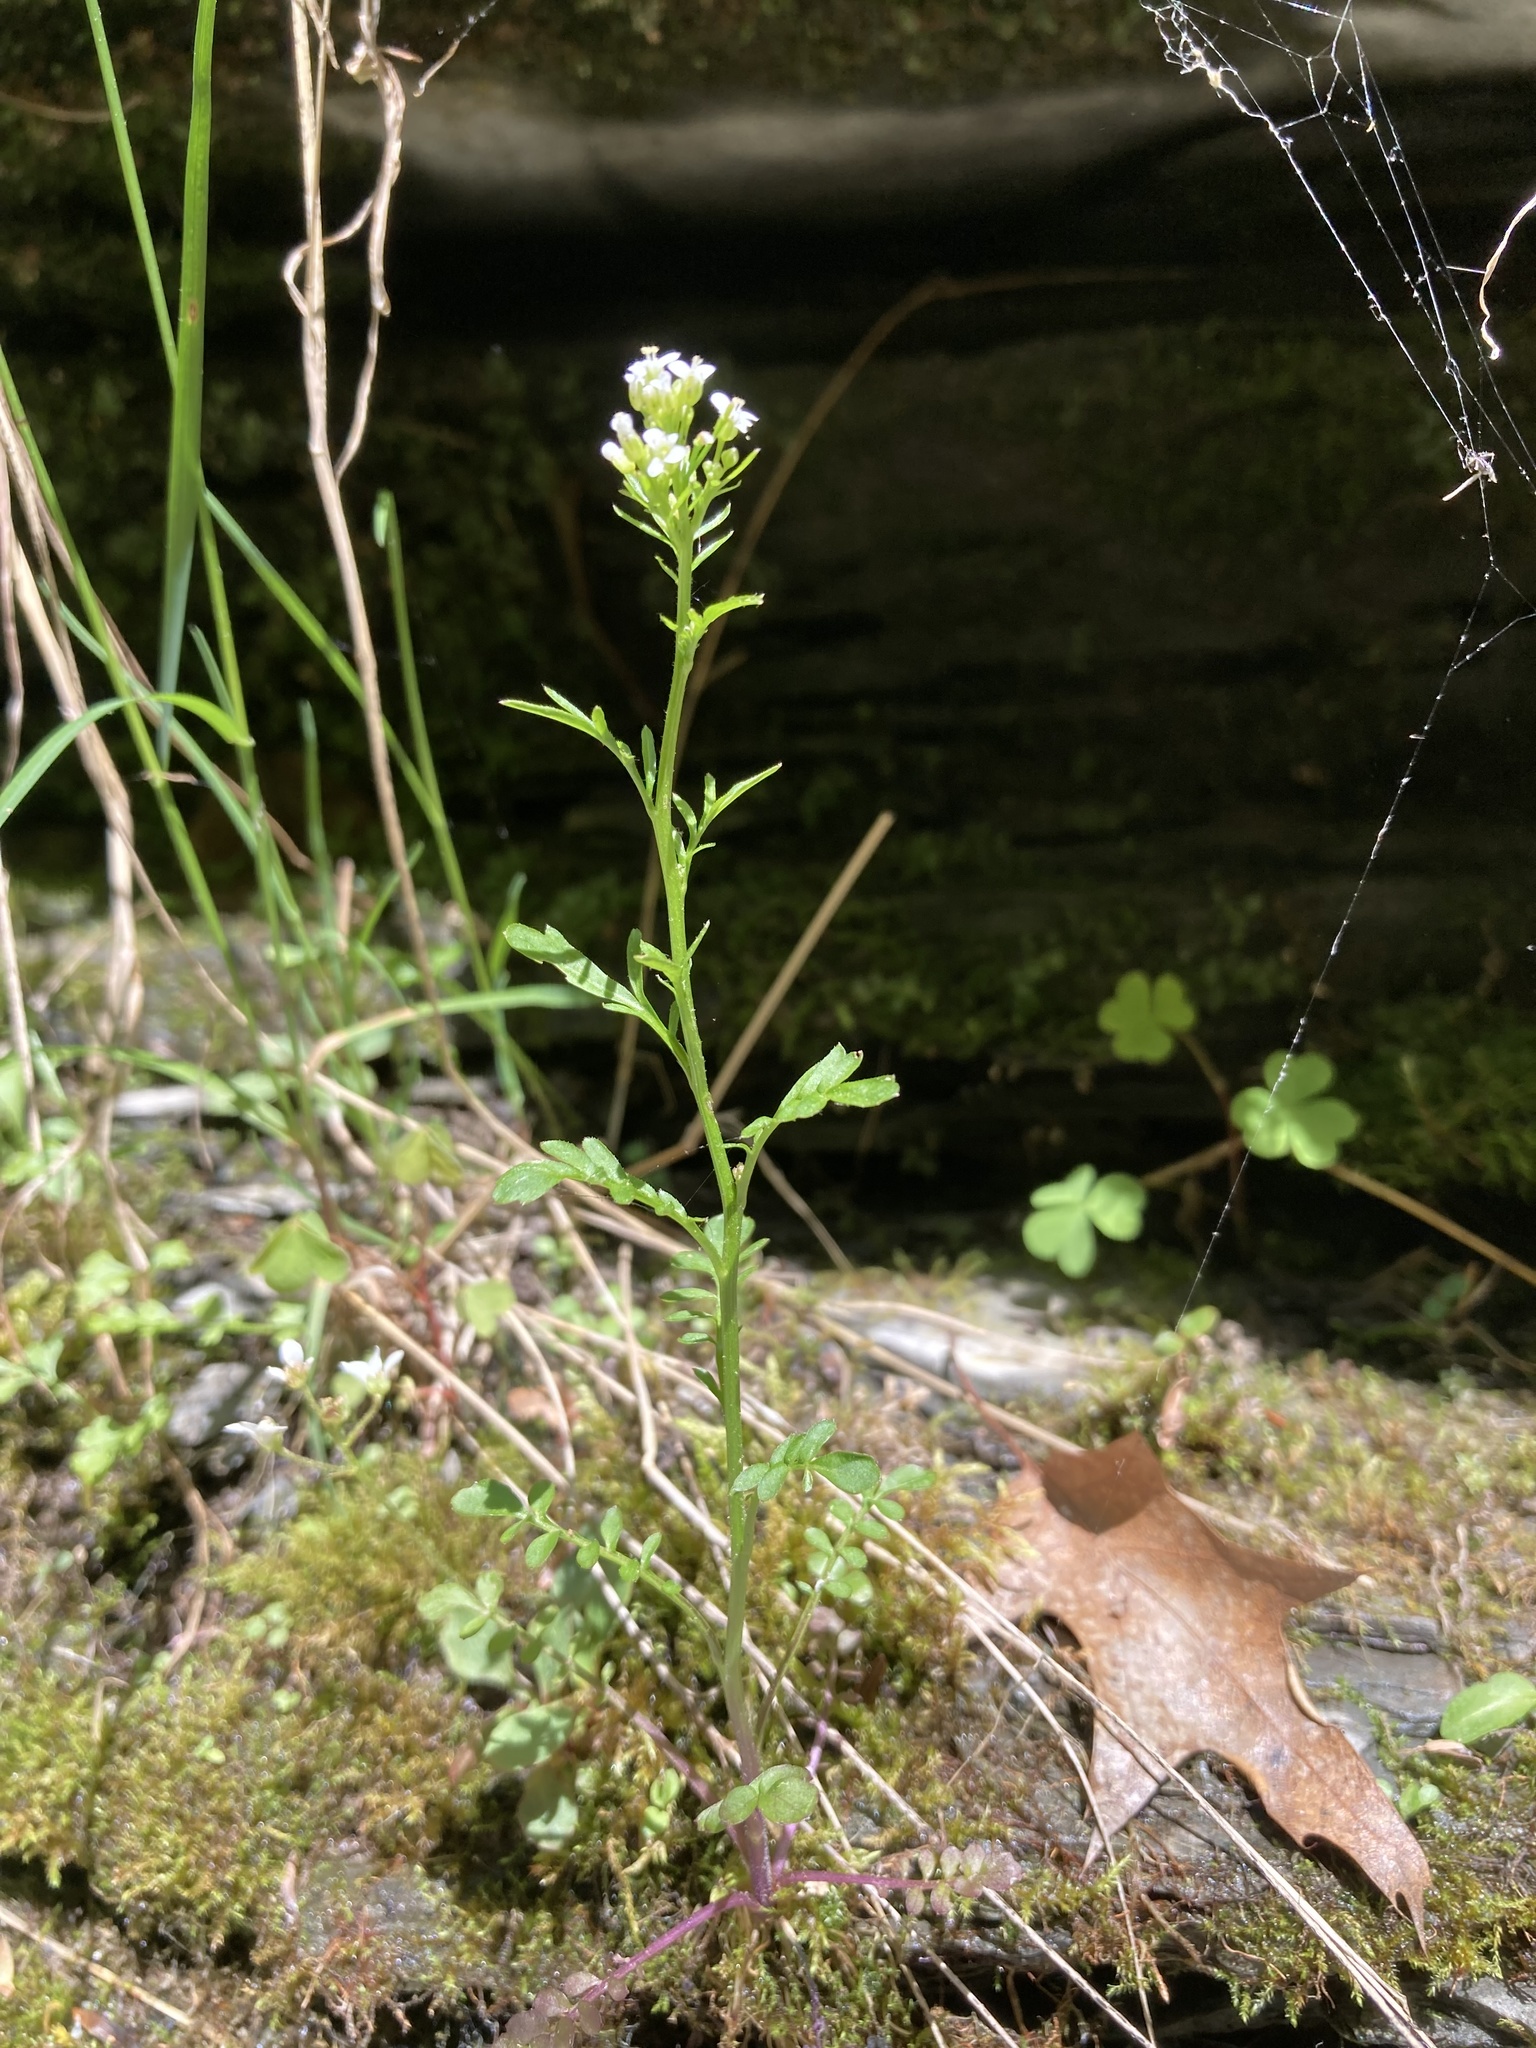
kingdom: Plantae
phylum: Tracheophyta
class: Magnoliopsida
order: Brassicales
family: Brassicaceae
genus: Cardamine
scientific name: Cardamine pensylvanica
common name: Pennsylvania bittercress
